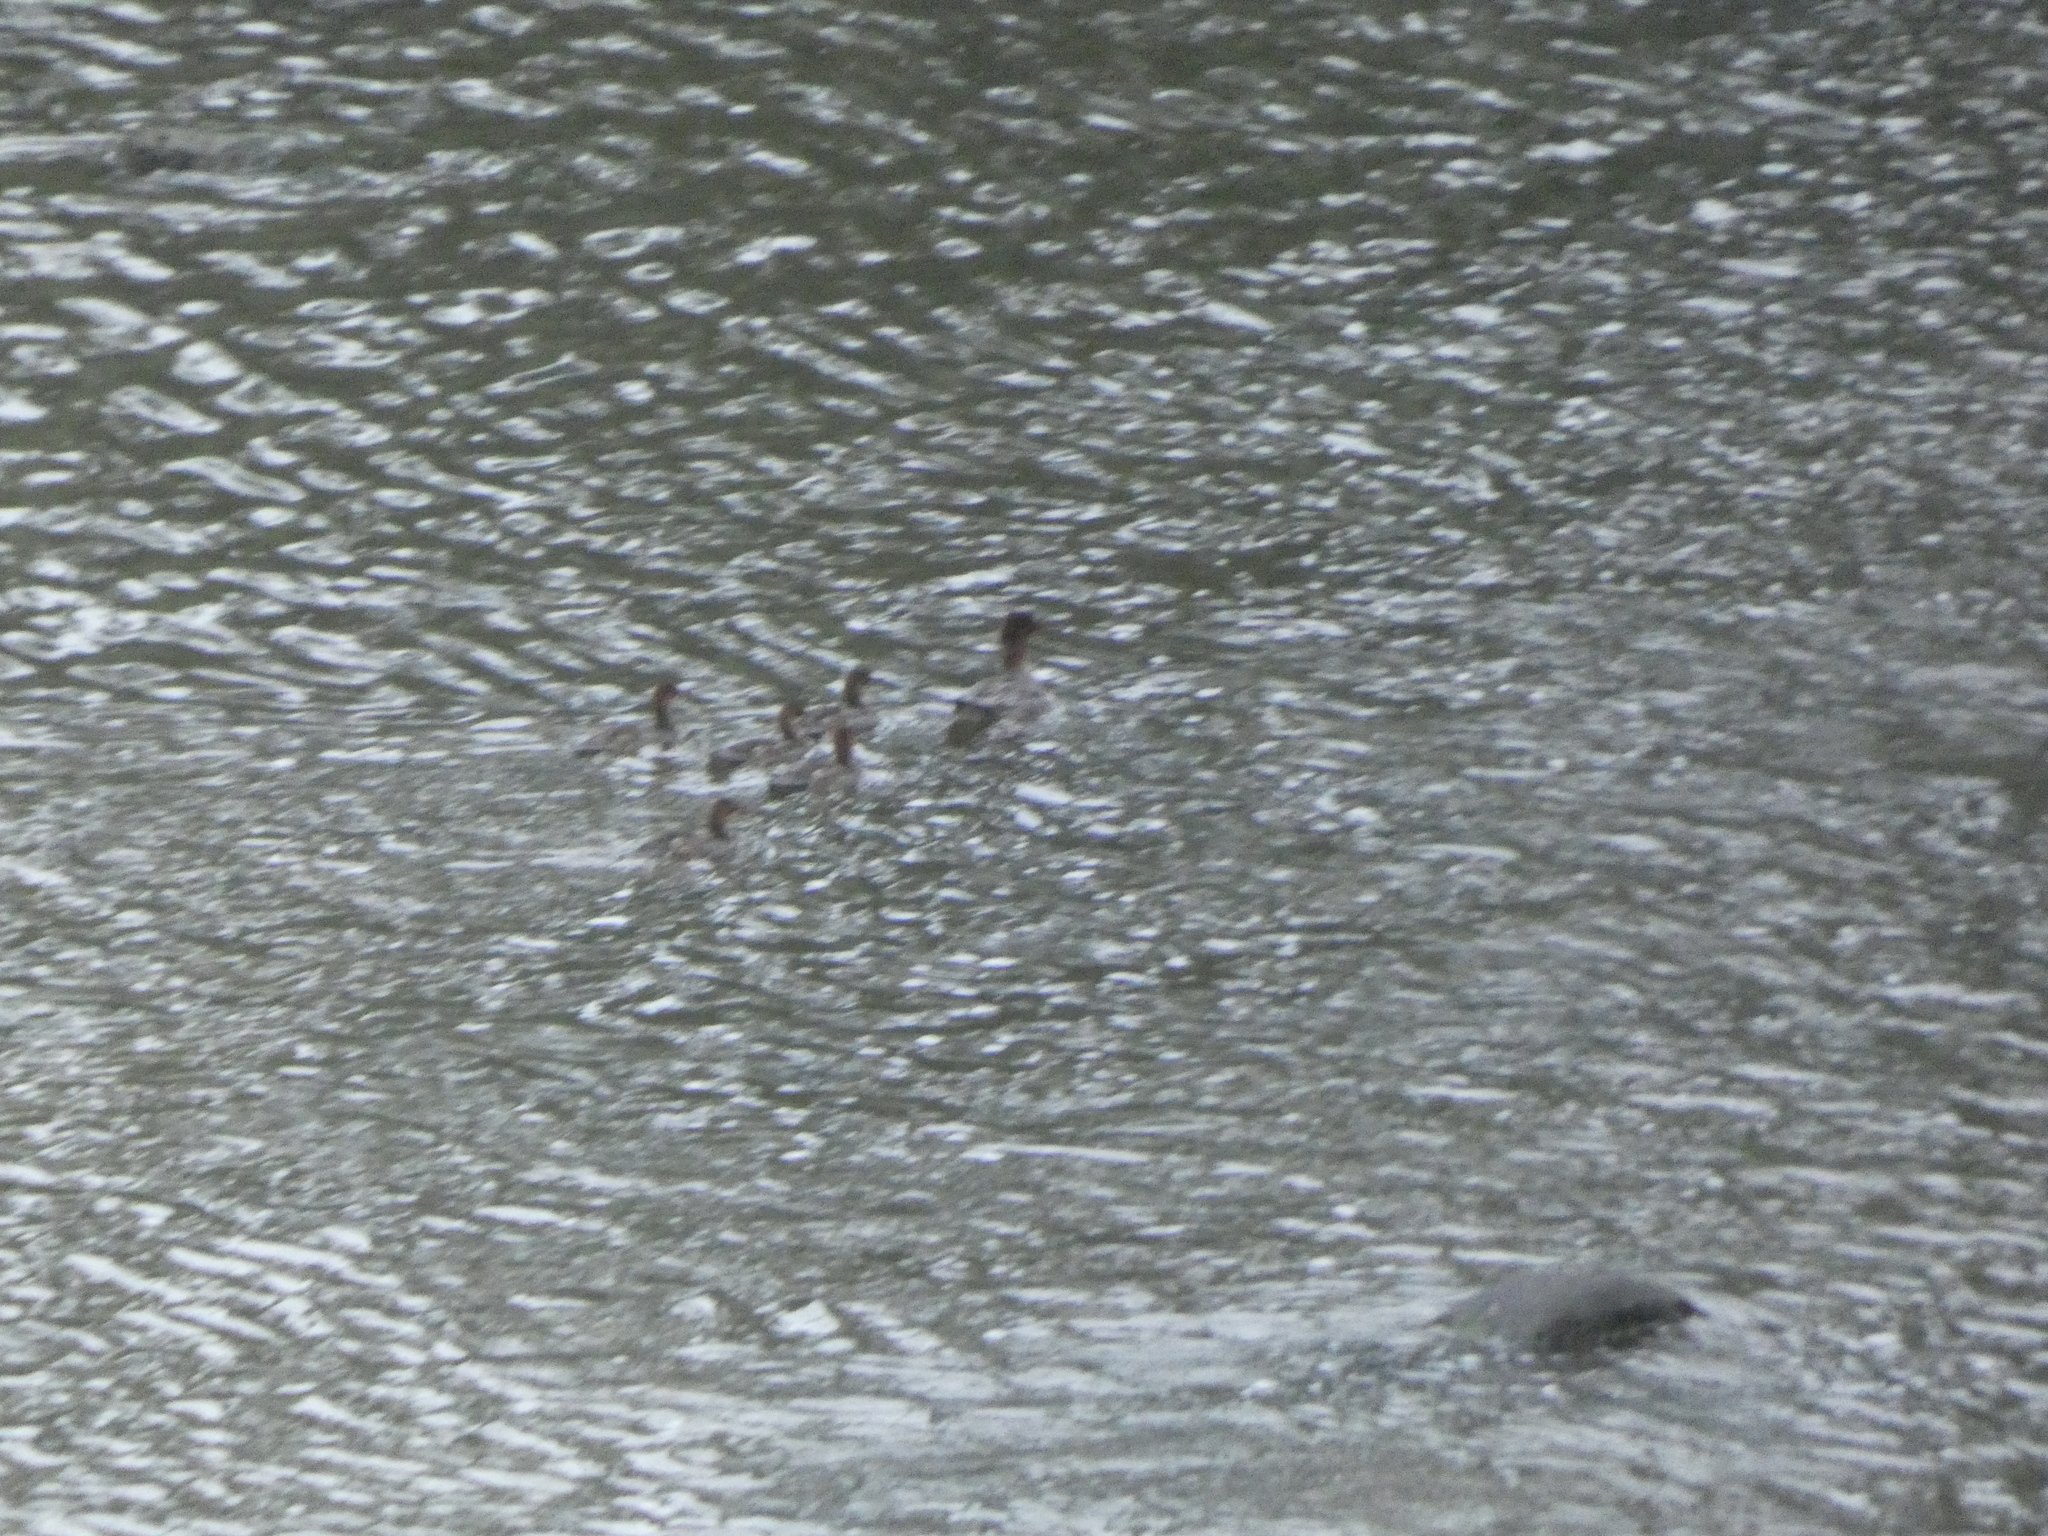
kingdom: Animalia
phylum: Chordata
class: Aves
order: Anseriformes
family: Anatidae
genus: Mergus
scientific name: Mergus merganser
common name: Common merganser
